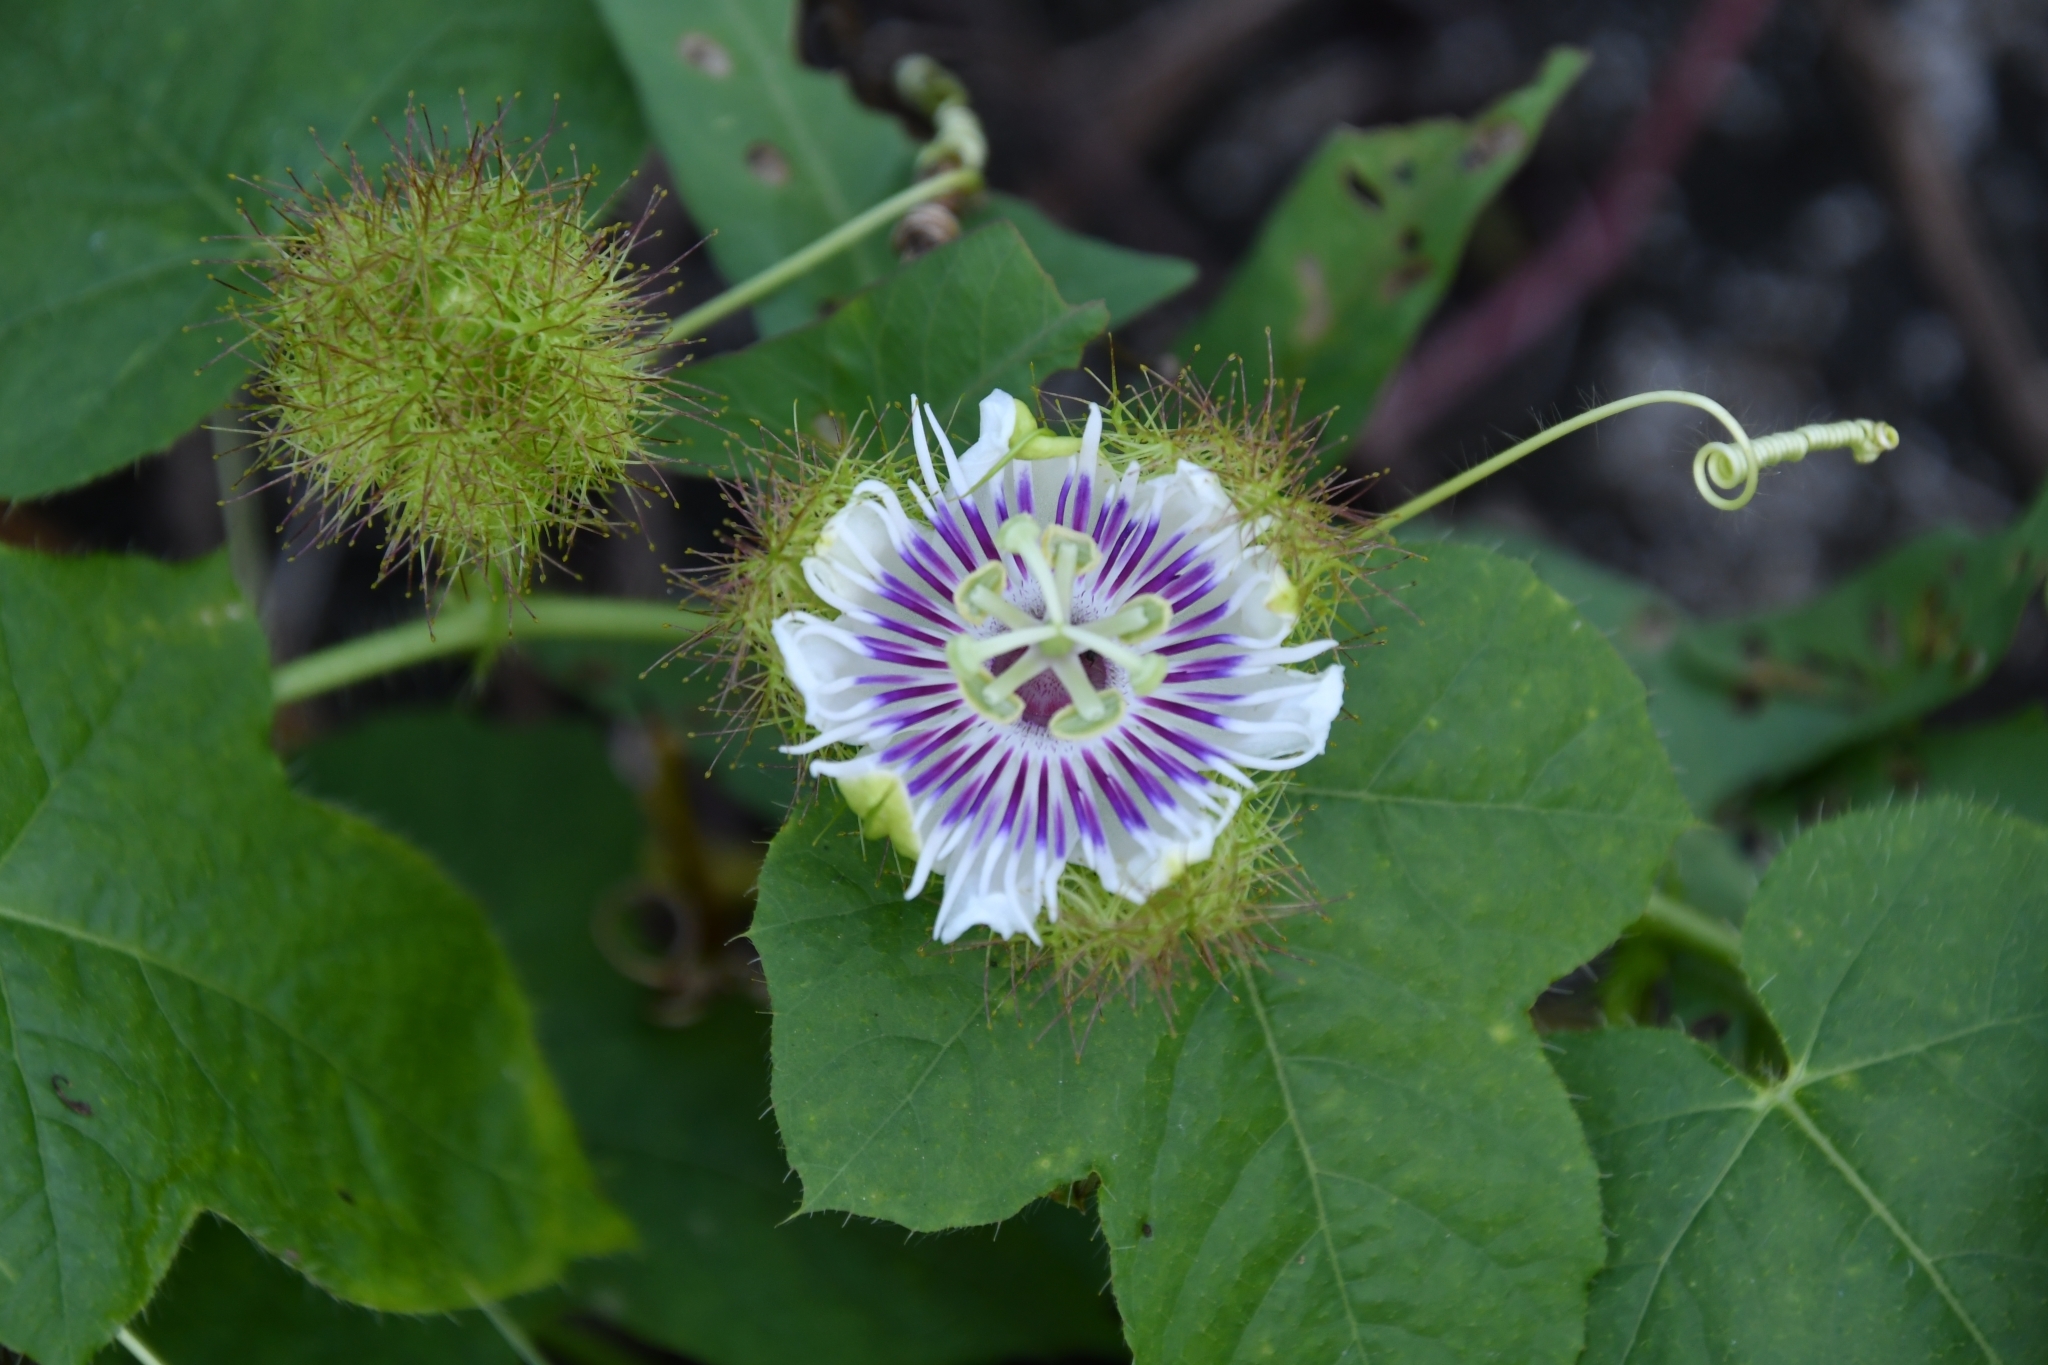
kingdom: Plantae
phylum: Tracheophyta
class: Magnoliopsida
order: Malpighiales
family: Passifloraceae
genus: Passiflora
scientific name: Passiflora foetida
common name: Fetid passionflower
